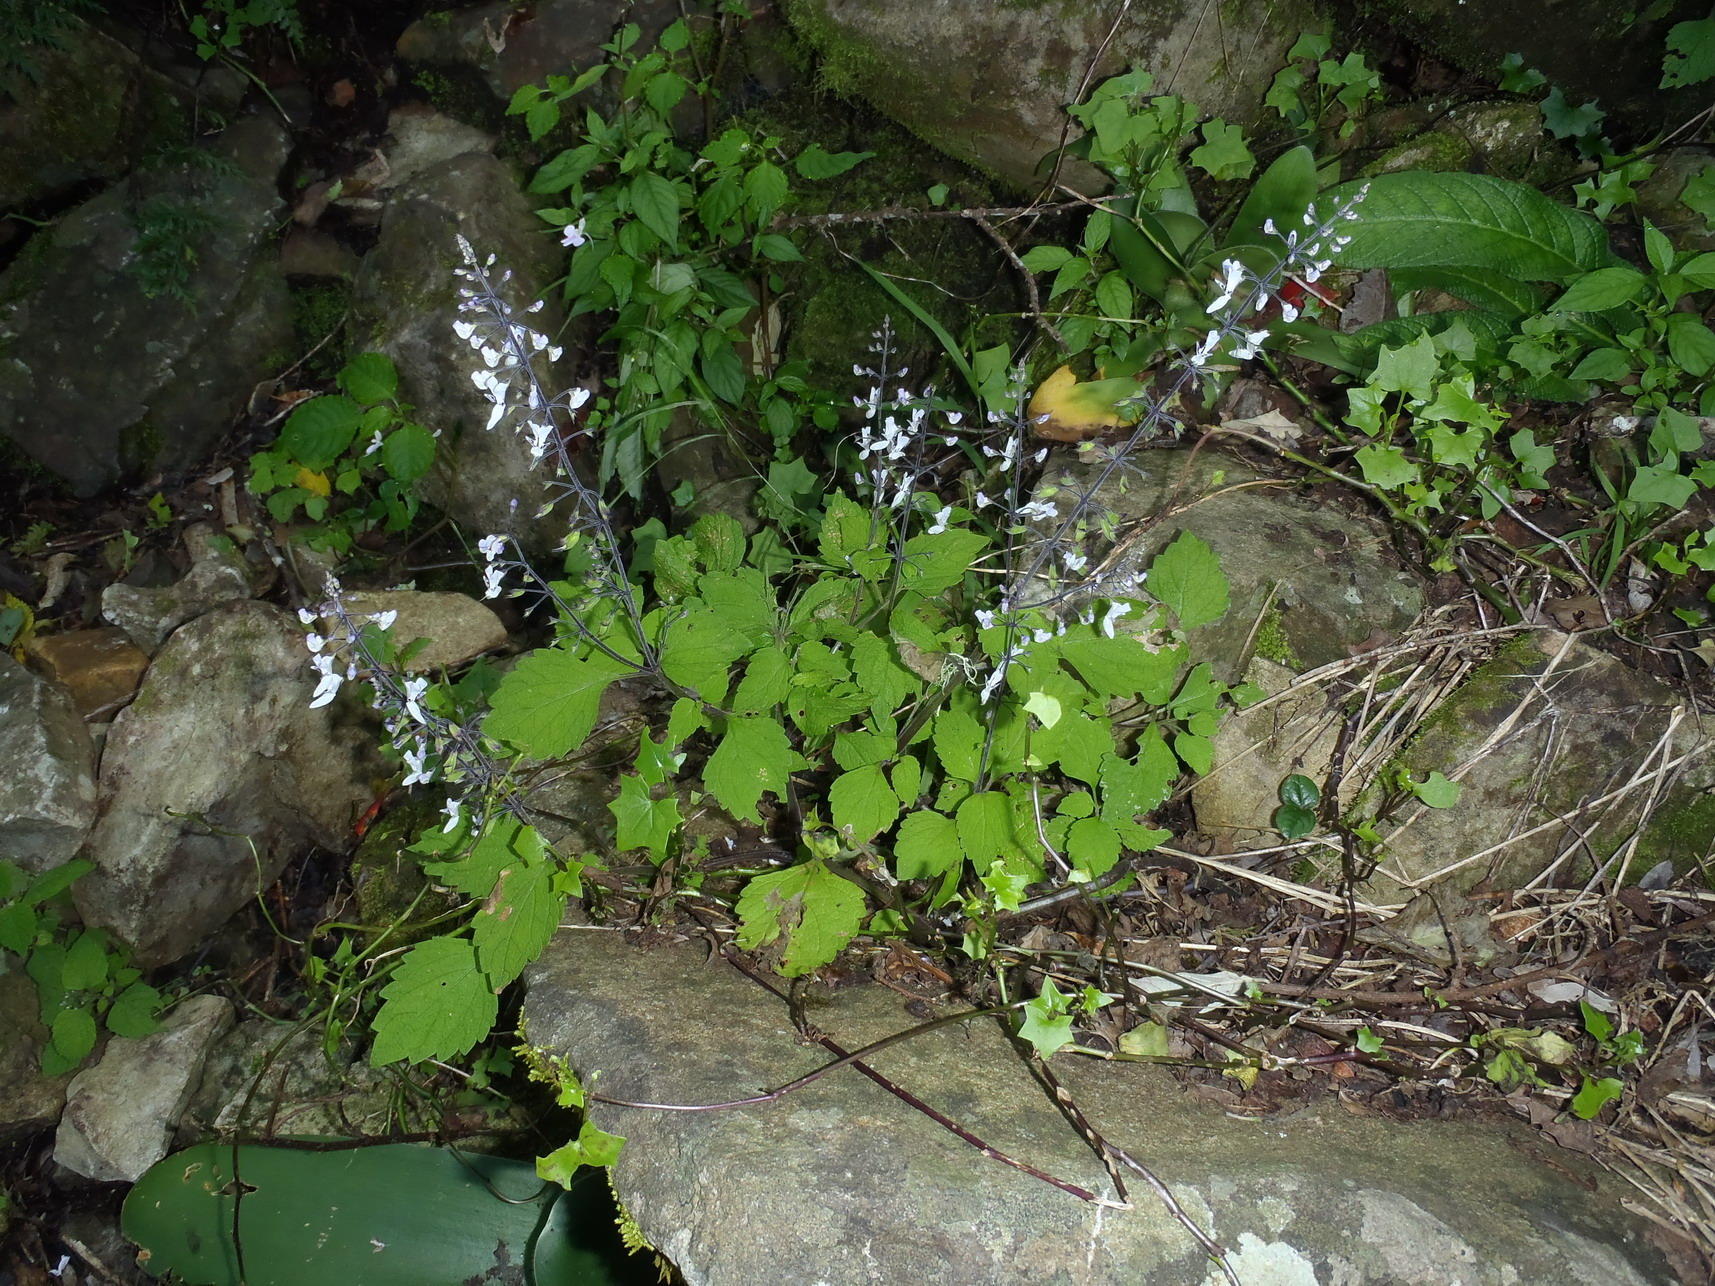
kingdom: Plantae
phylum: Tracheophyta
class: Magnoliopsida
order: Lamiales
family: Lamiaceae
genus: Plectranthus
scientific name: Plectranthus grallatus
